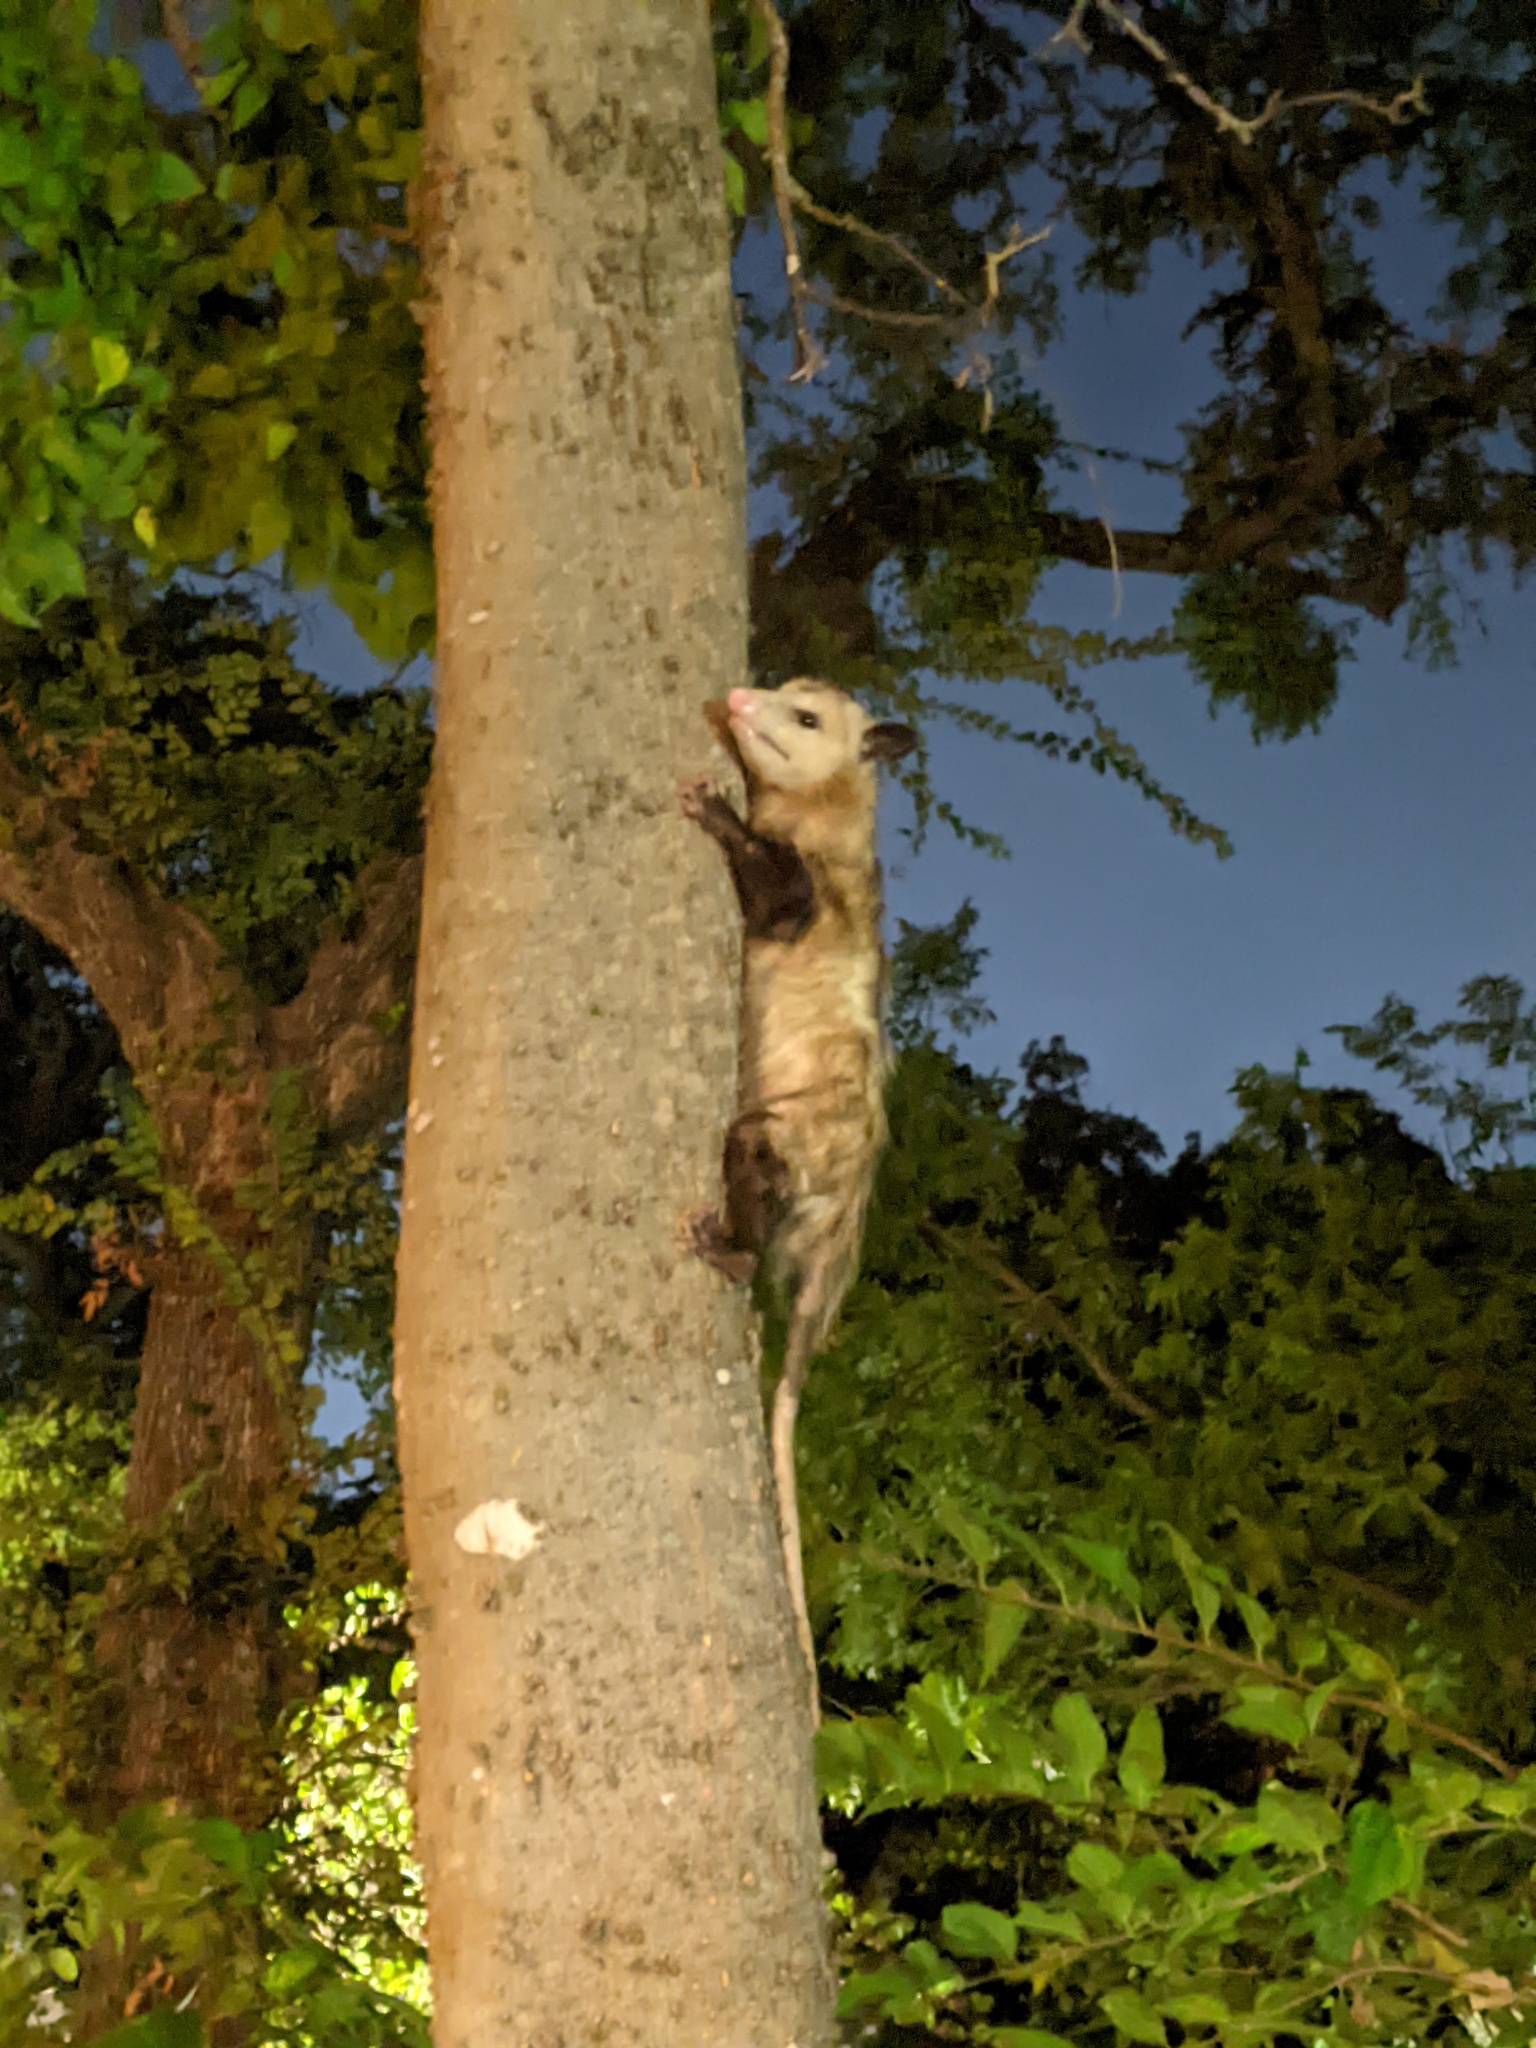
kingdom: Animalia
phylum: Chordata
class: Mammalia
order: Didelphimorphia
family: Didelphidae
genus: Didelphis
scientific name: Didelphis virginiana
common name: Virginia opossum
